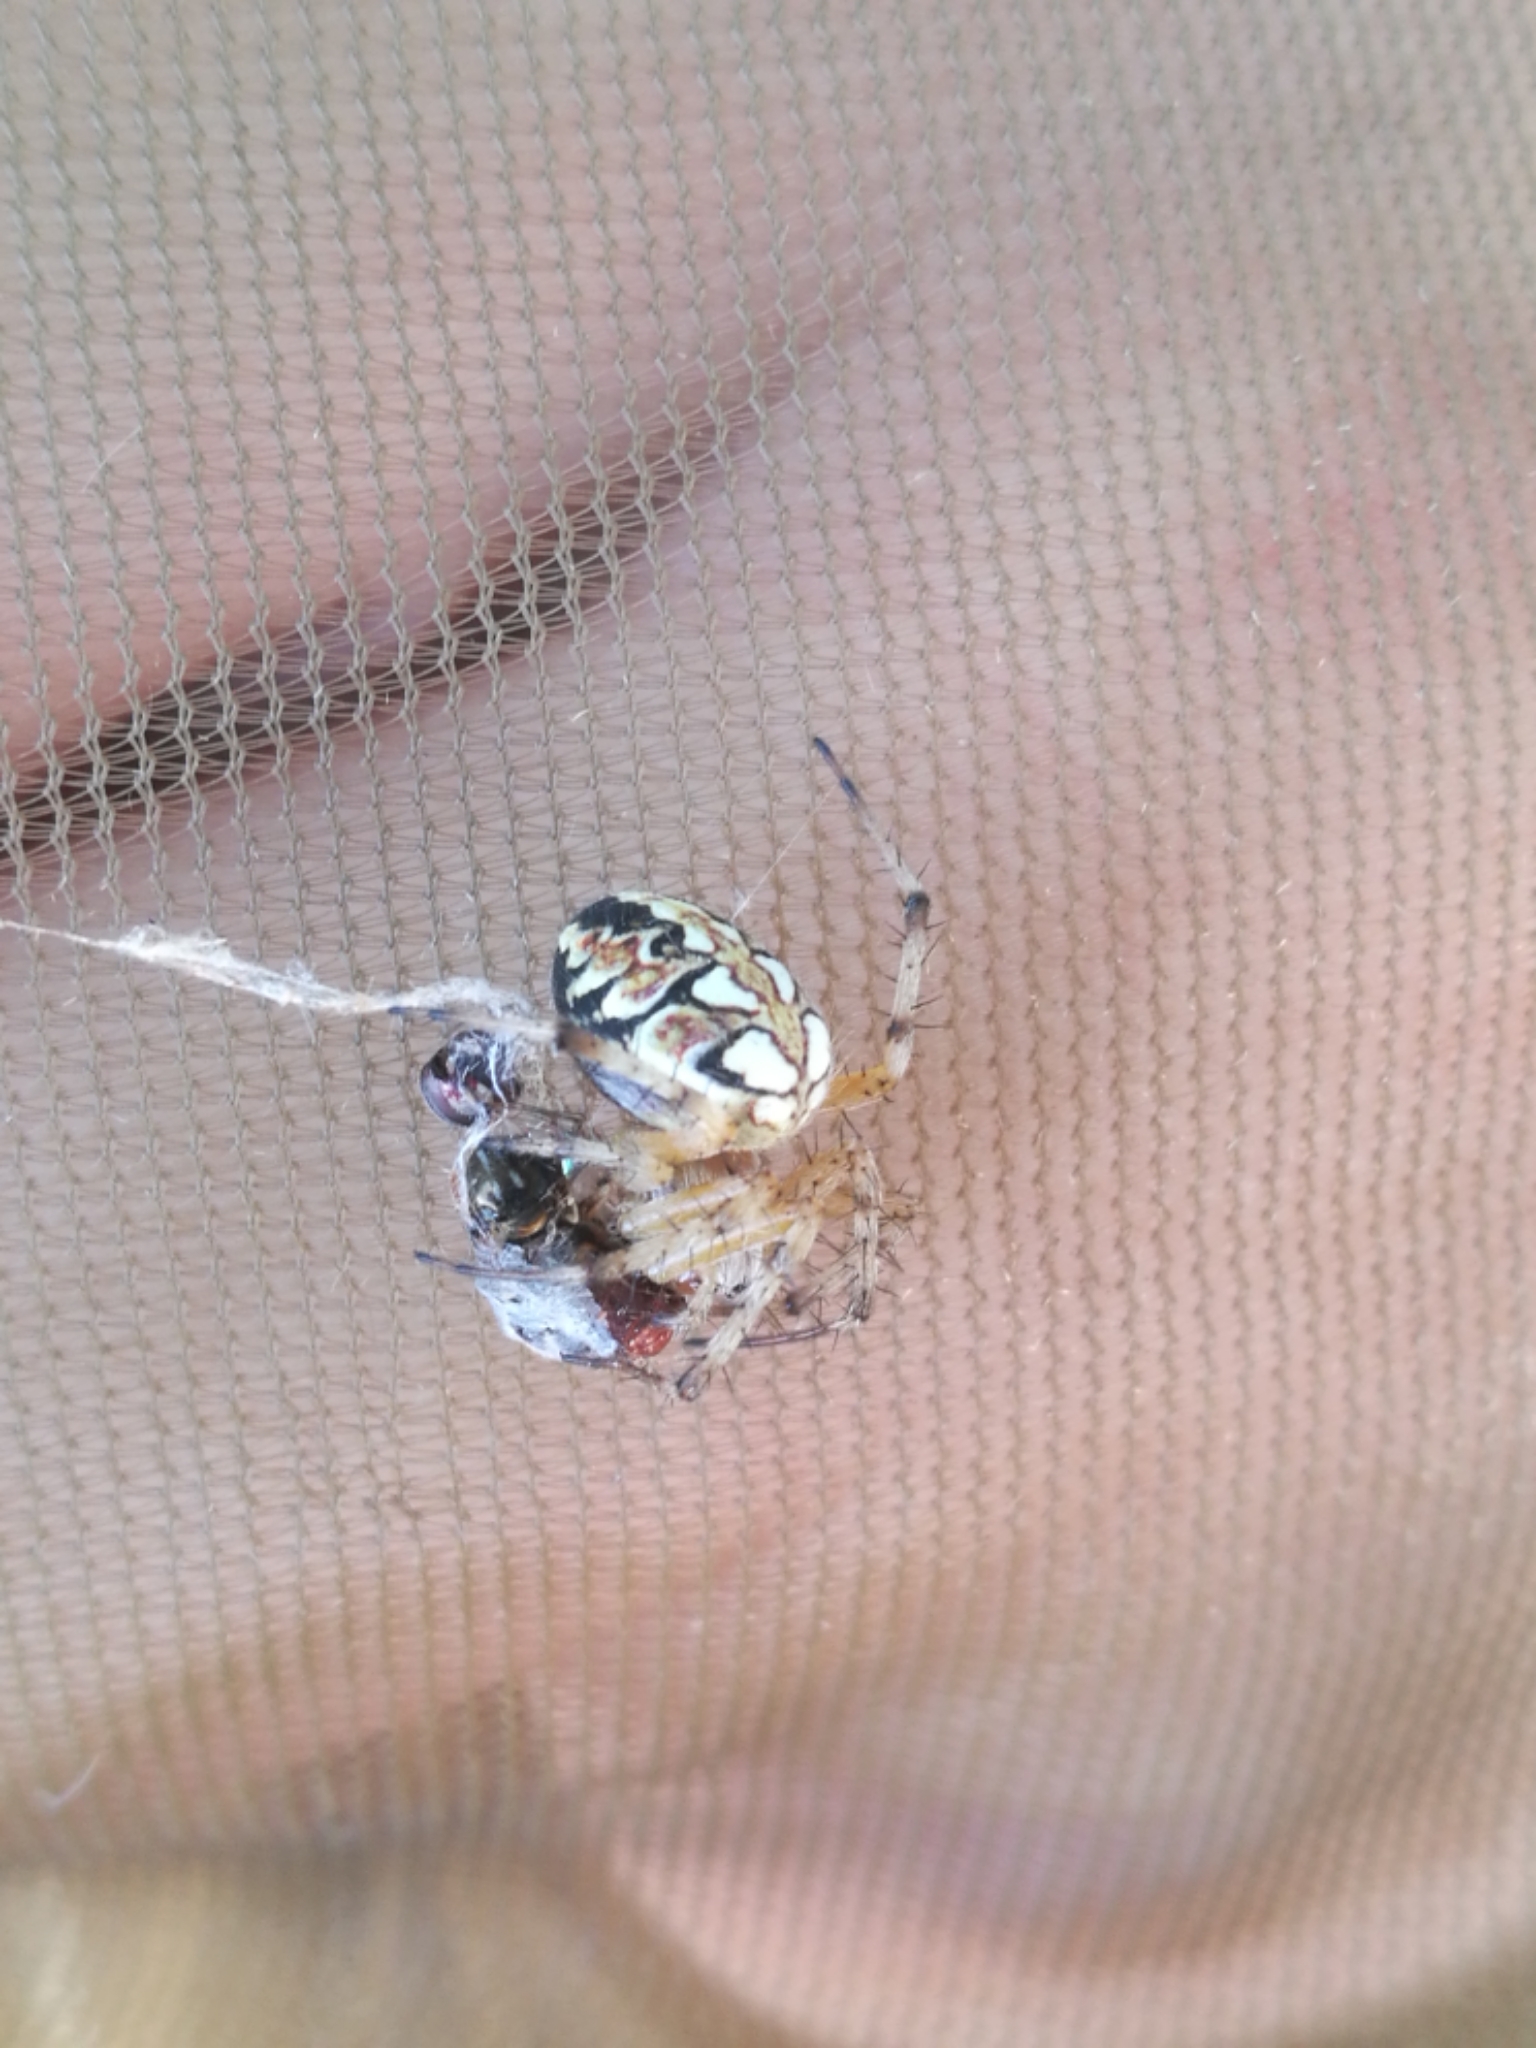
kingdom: Animalia
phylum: Arthropoda
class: Arachnida
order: Araneae
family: Araneidae
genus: Neoscona
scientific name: Neoscona adianta
